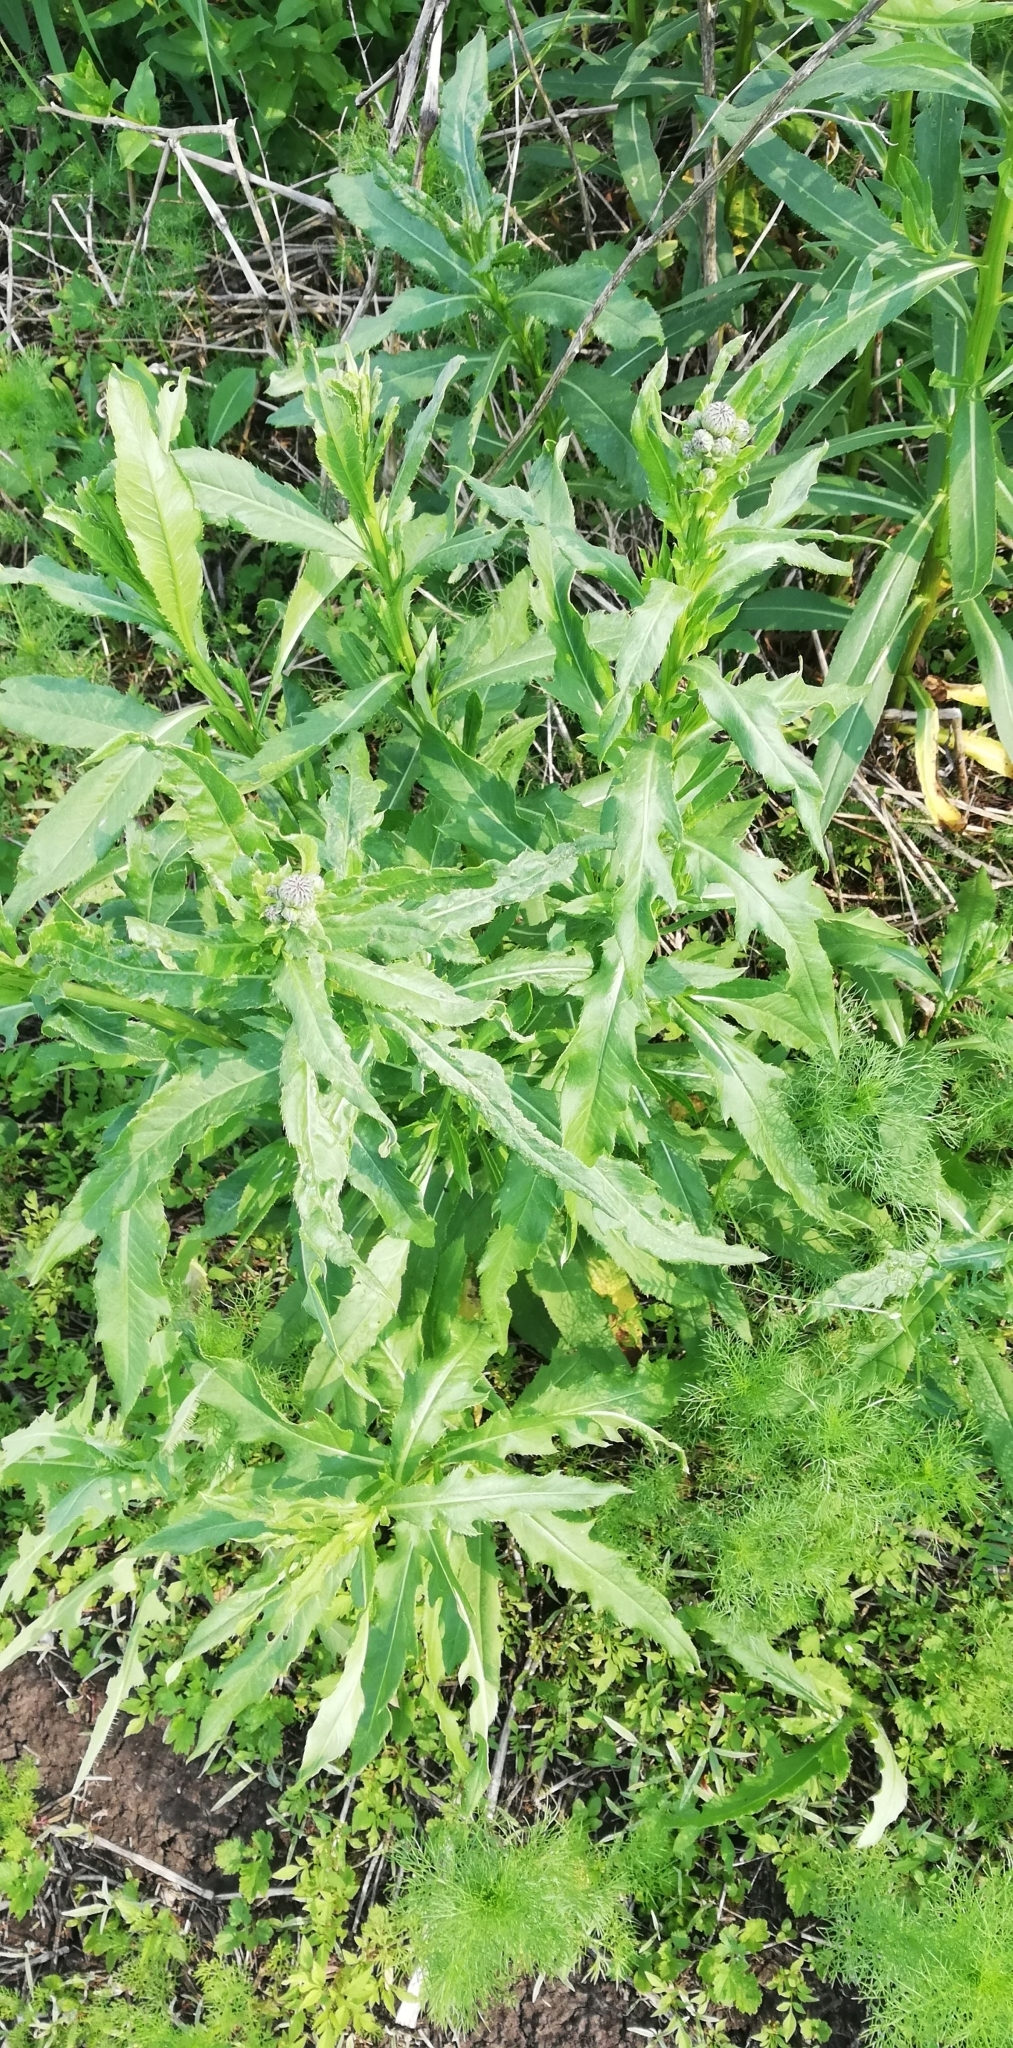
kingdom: Plantae
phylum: Tracheophyta
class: Magnoliopsida
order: Asterales
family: Asteraceae
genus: Cirsium
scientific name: Cirsium arvense
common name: Creeping thistle
